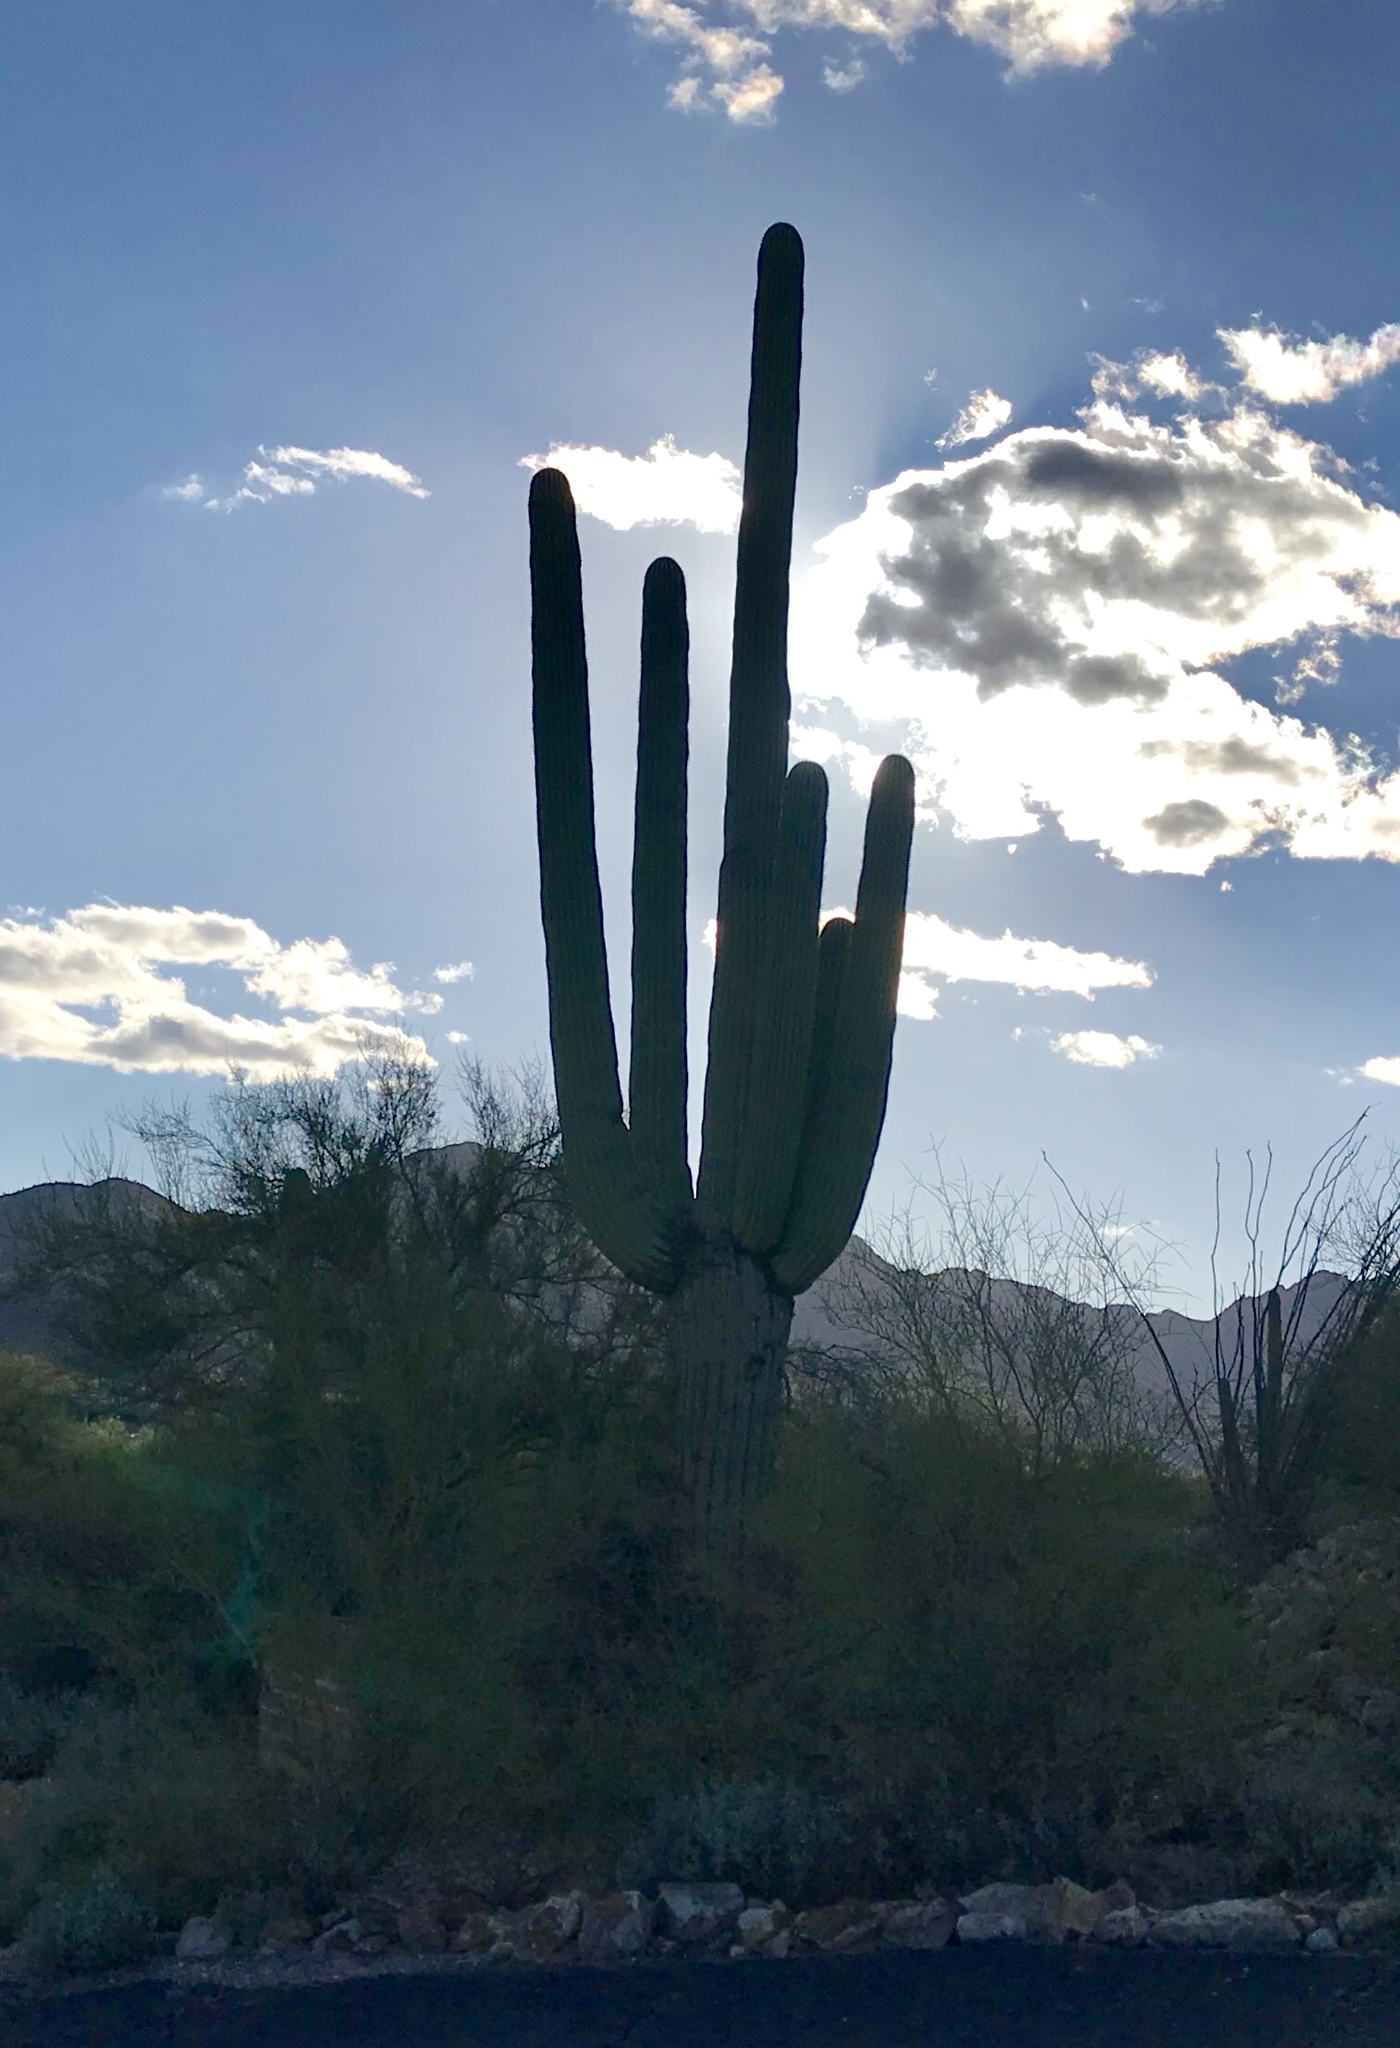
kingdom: Plantae
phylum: Tracheophyta
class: Magnoliopsida
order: Caryophyllales
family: Cactaceae
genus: Carnegiea
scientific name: Carnegiea gigantea
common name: Saguaro
